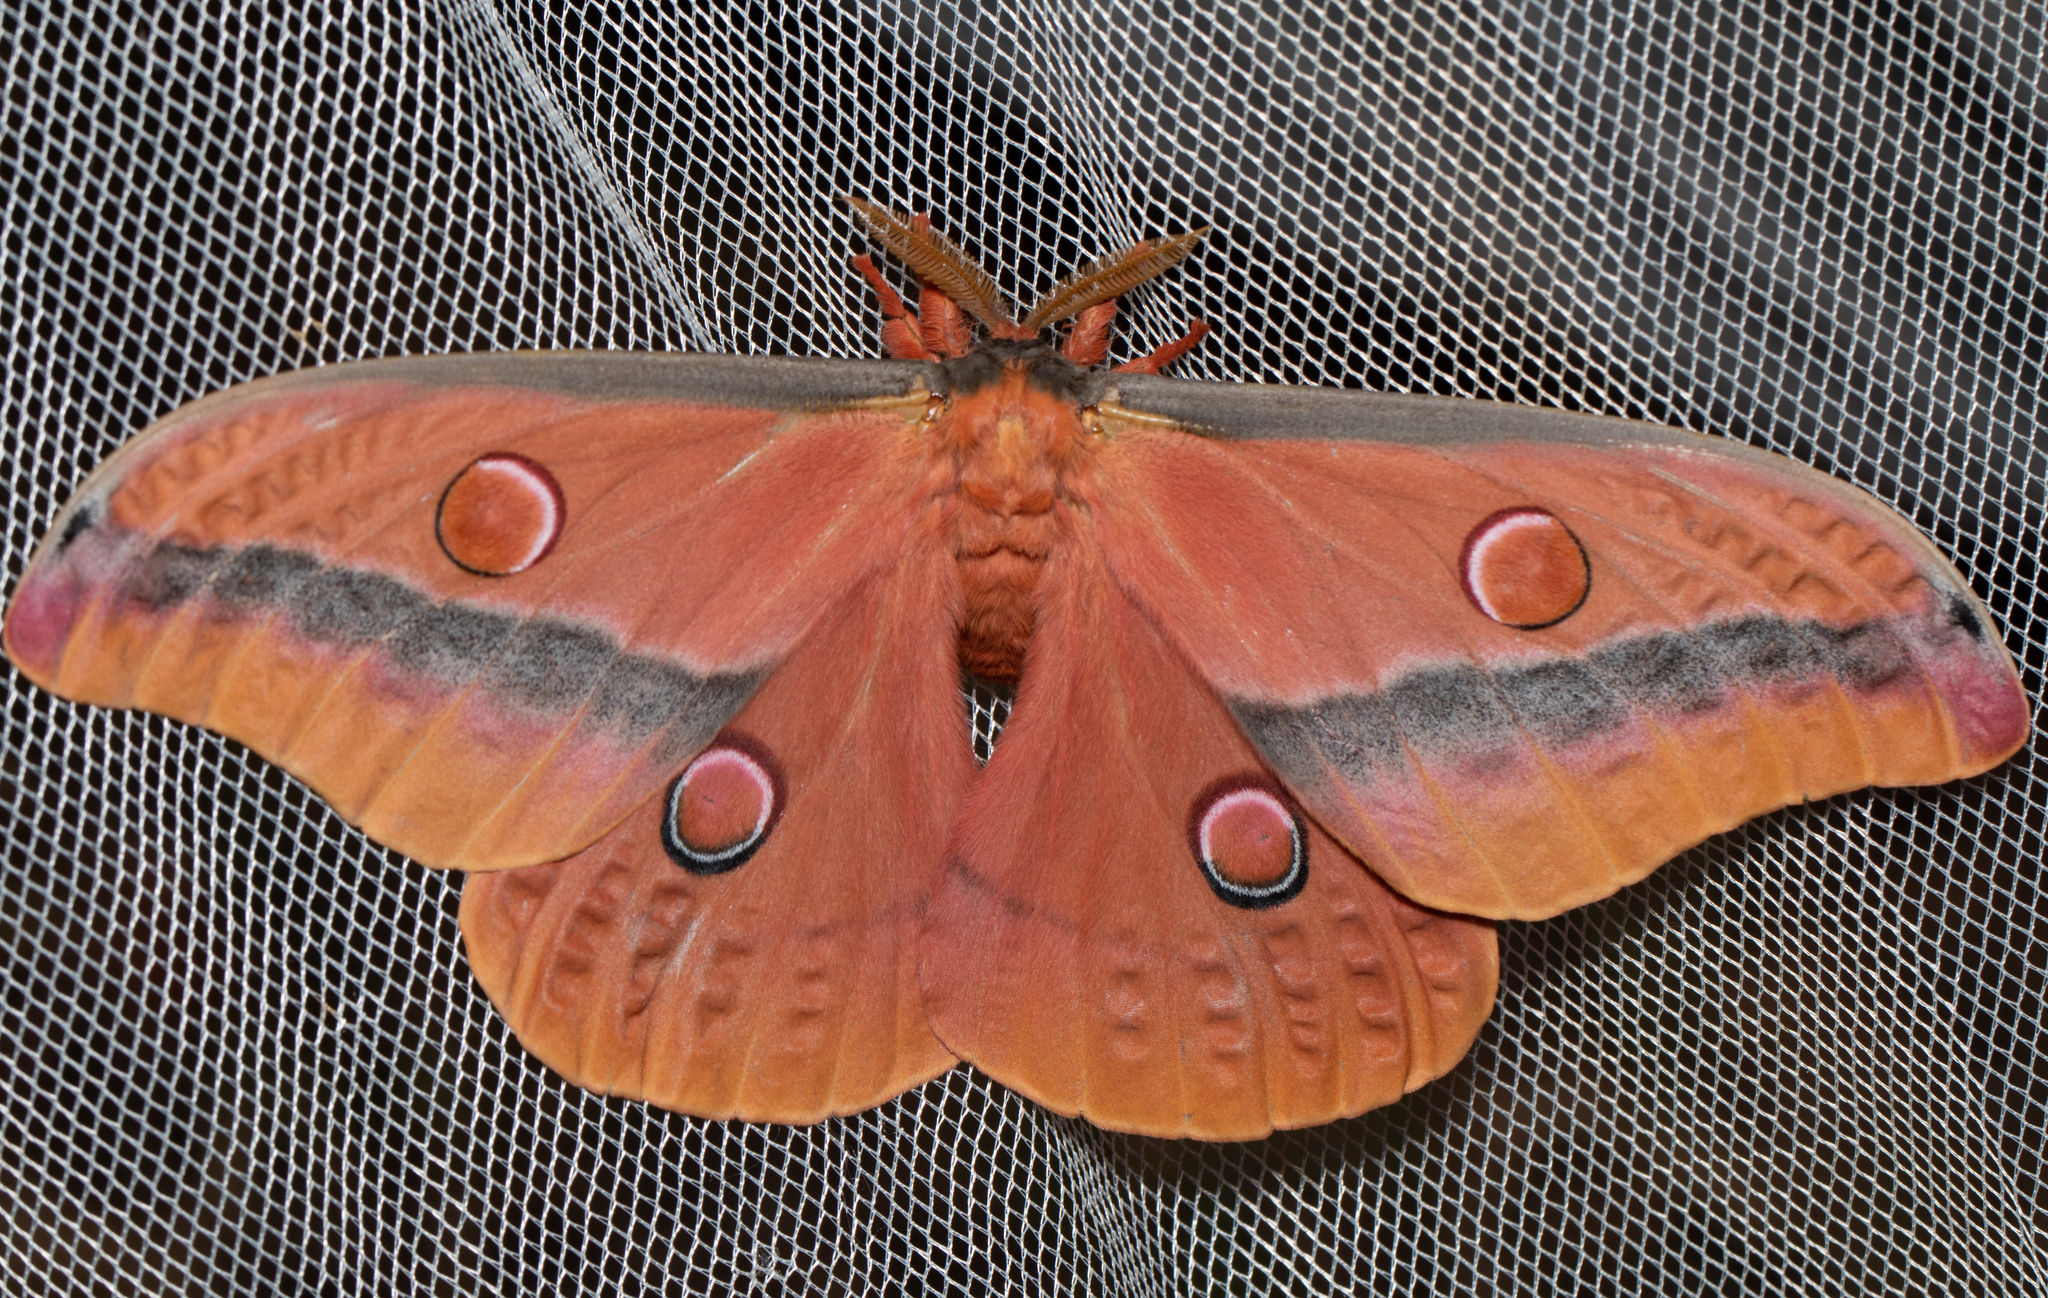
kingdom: Animalia
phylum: Arthropoda
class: Insecta
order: Lepidoptera
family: Saturniidae
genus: Opodiphthera
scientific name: Opodiphthera
